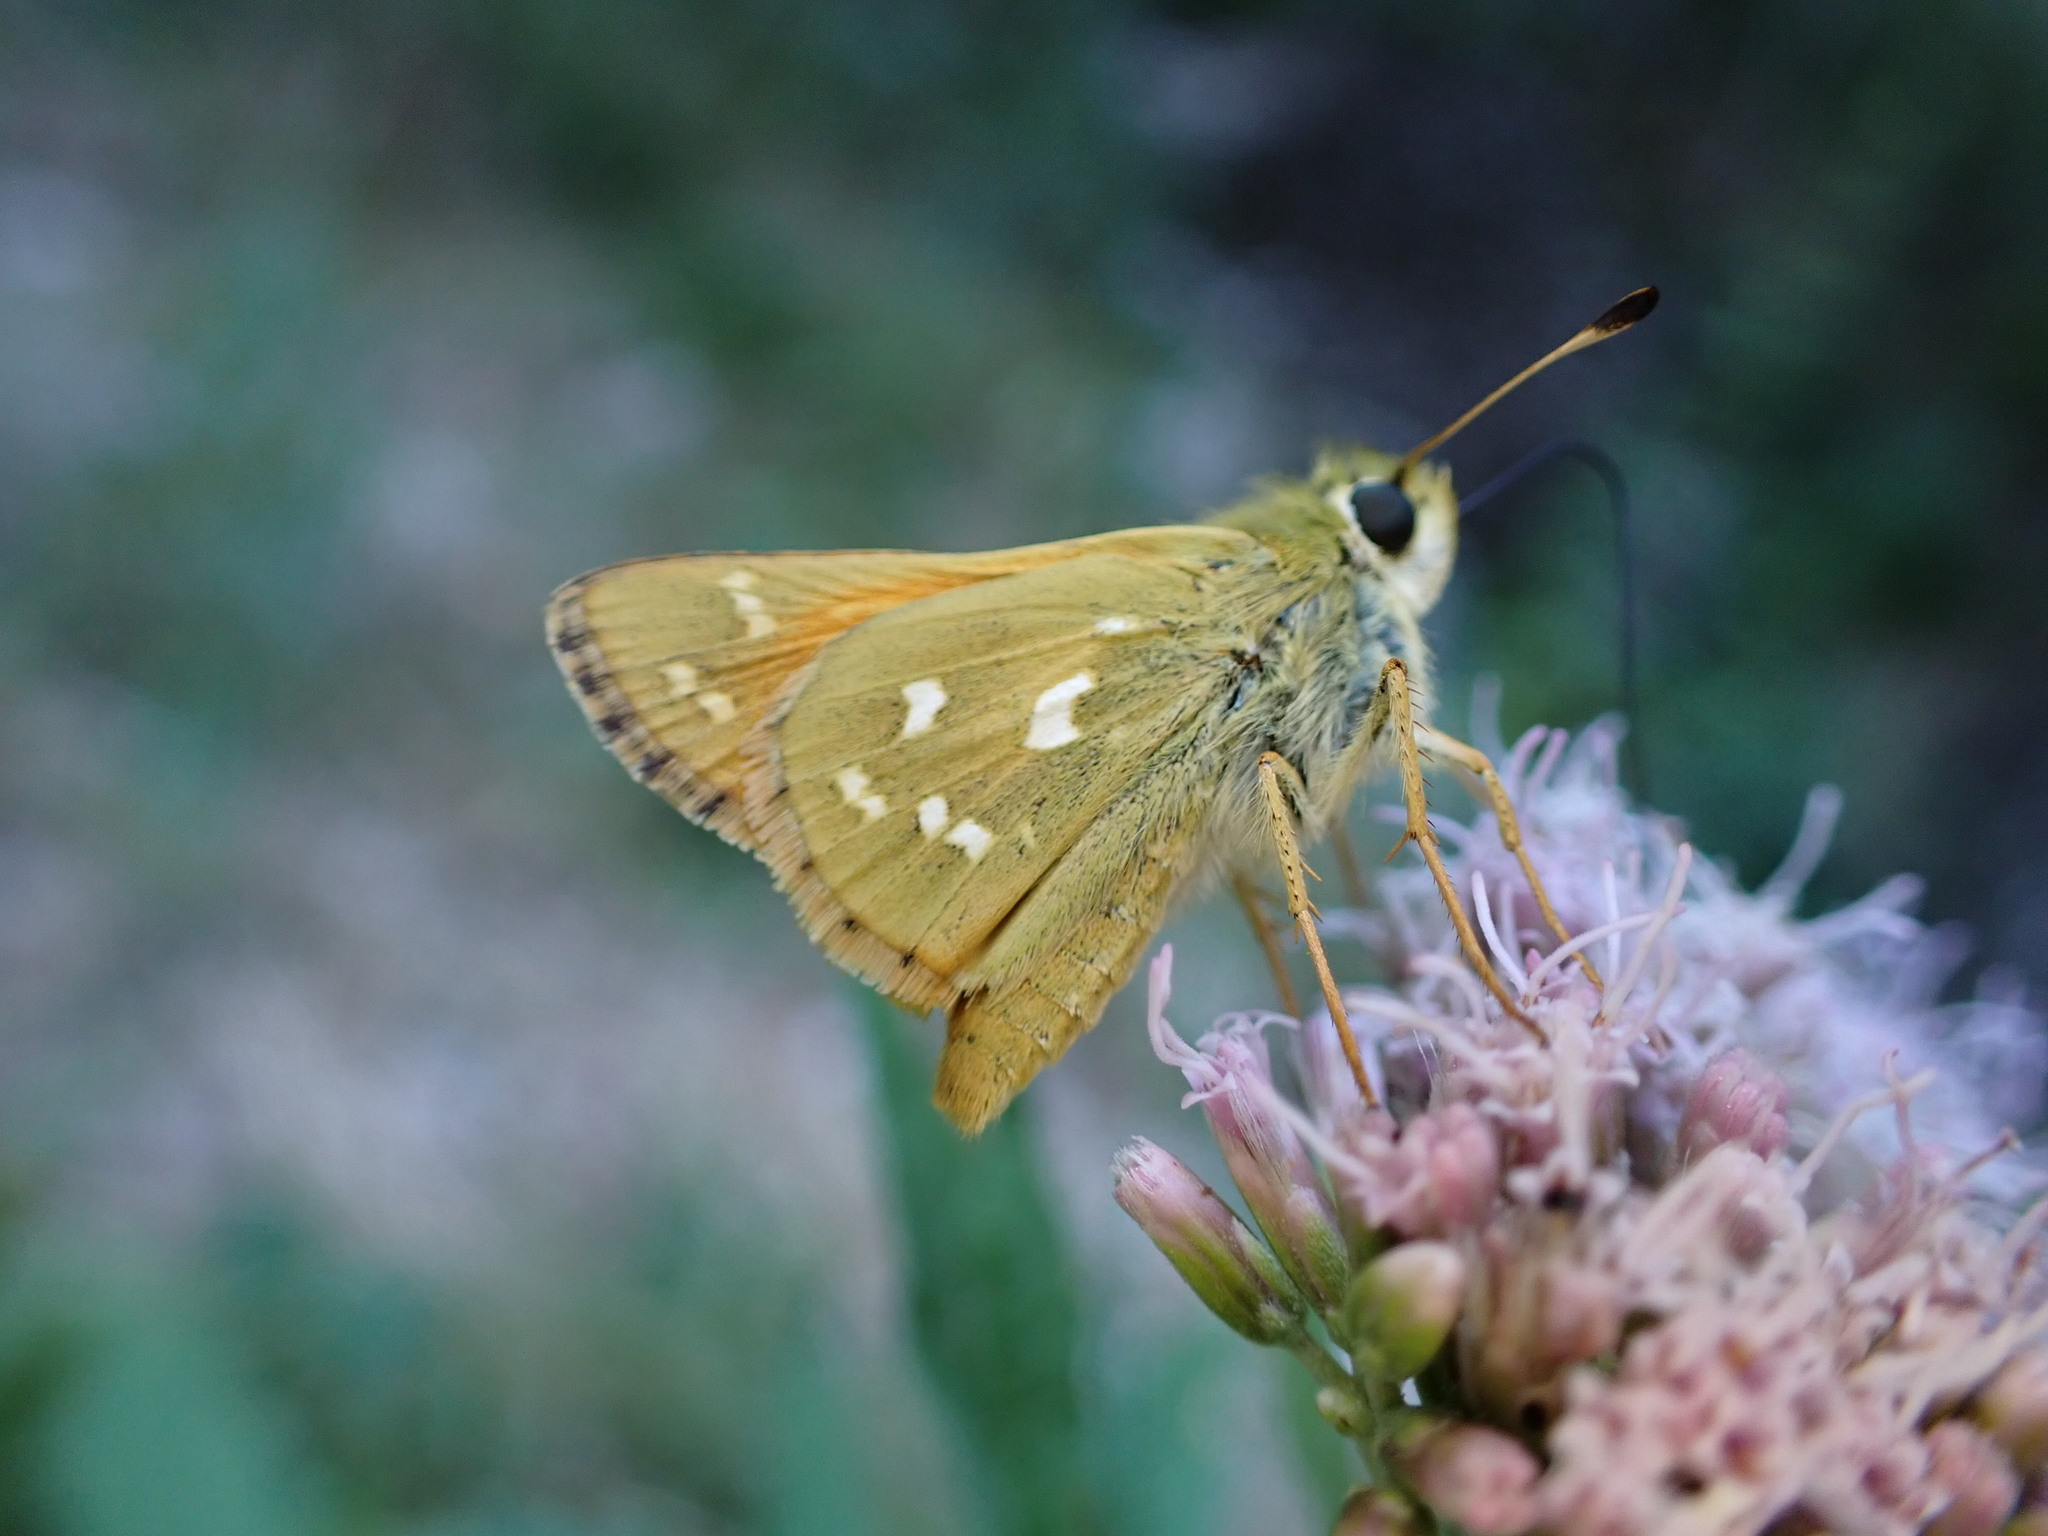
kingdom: Animalia
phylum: Arthropoda
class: Insecta
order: Lepidoptera
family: Hesperiidae
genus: Hesperia
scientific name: Hesperia comma
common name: Common branded skipper
